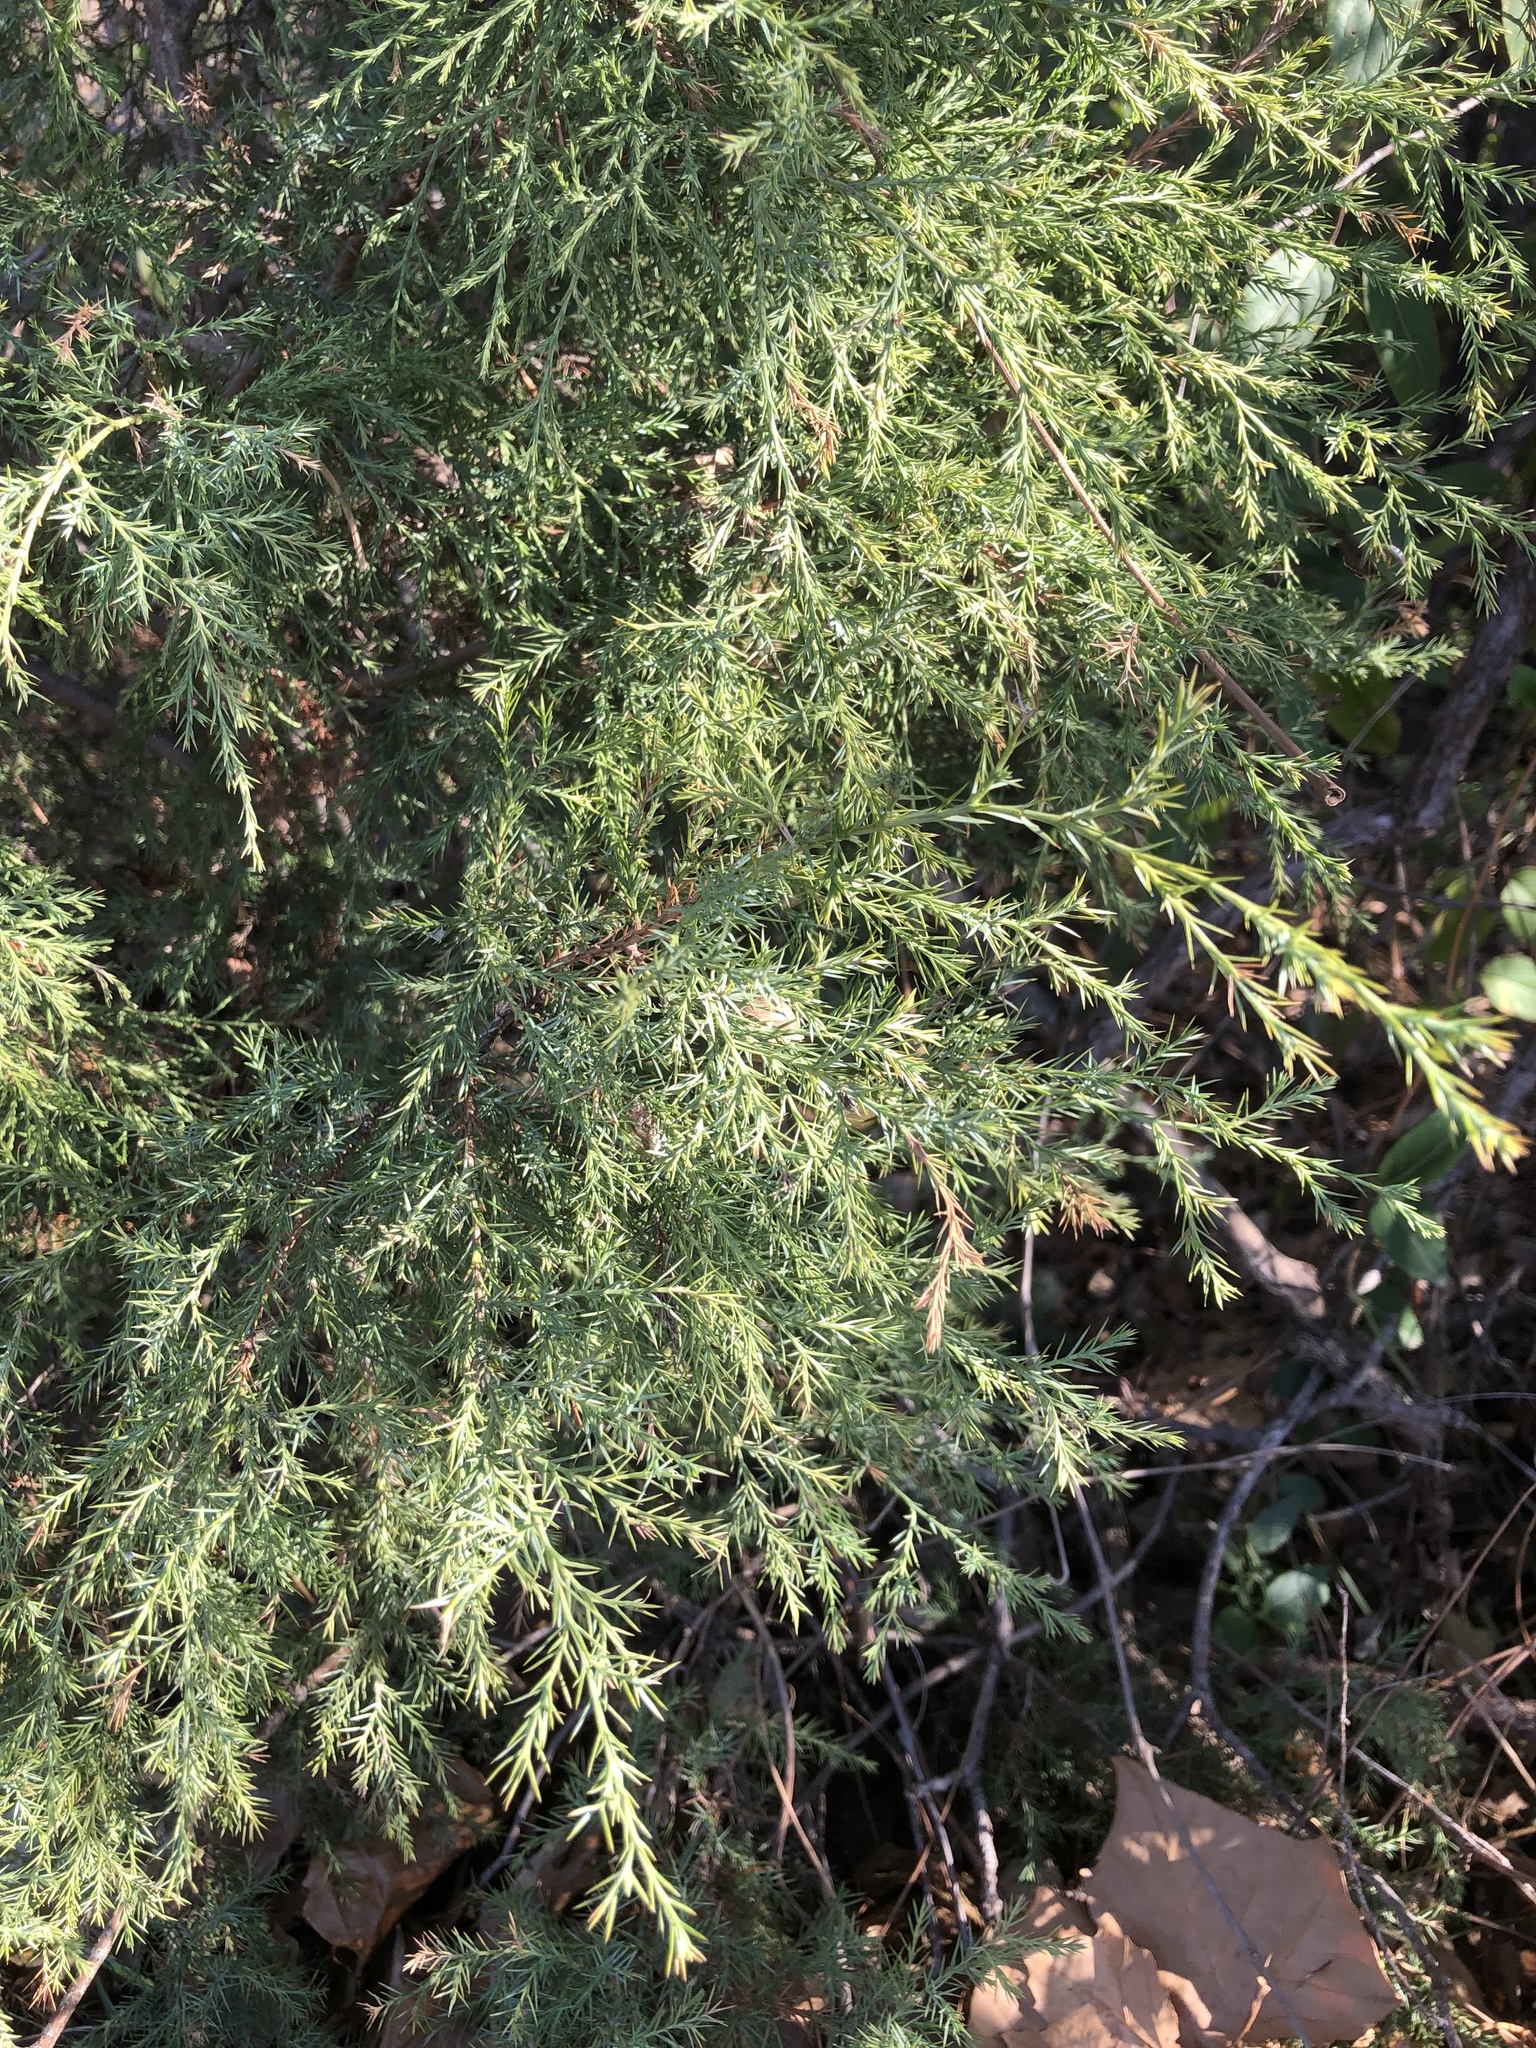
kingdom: Plantae
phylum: Tracheophyta
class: Pinopsida
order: Pinales
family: Cupressaceae
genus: Juniperus
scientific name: Juniperus virginiana
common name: Red juniper
